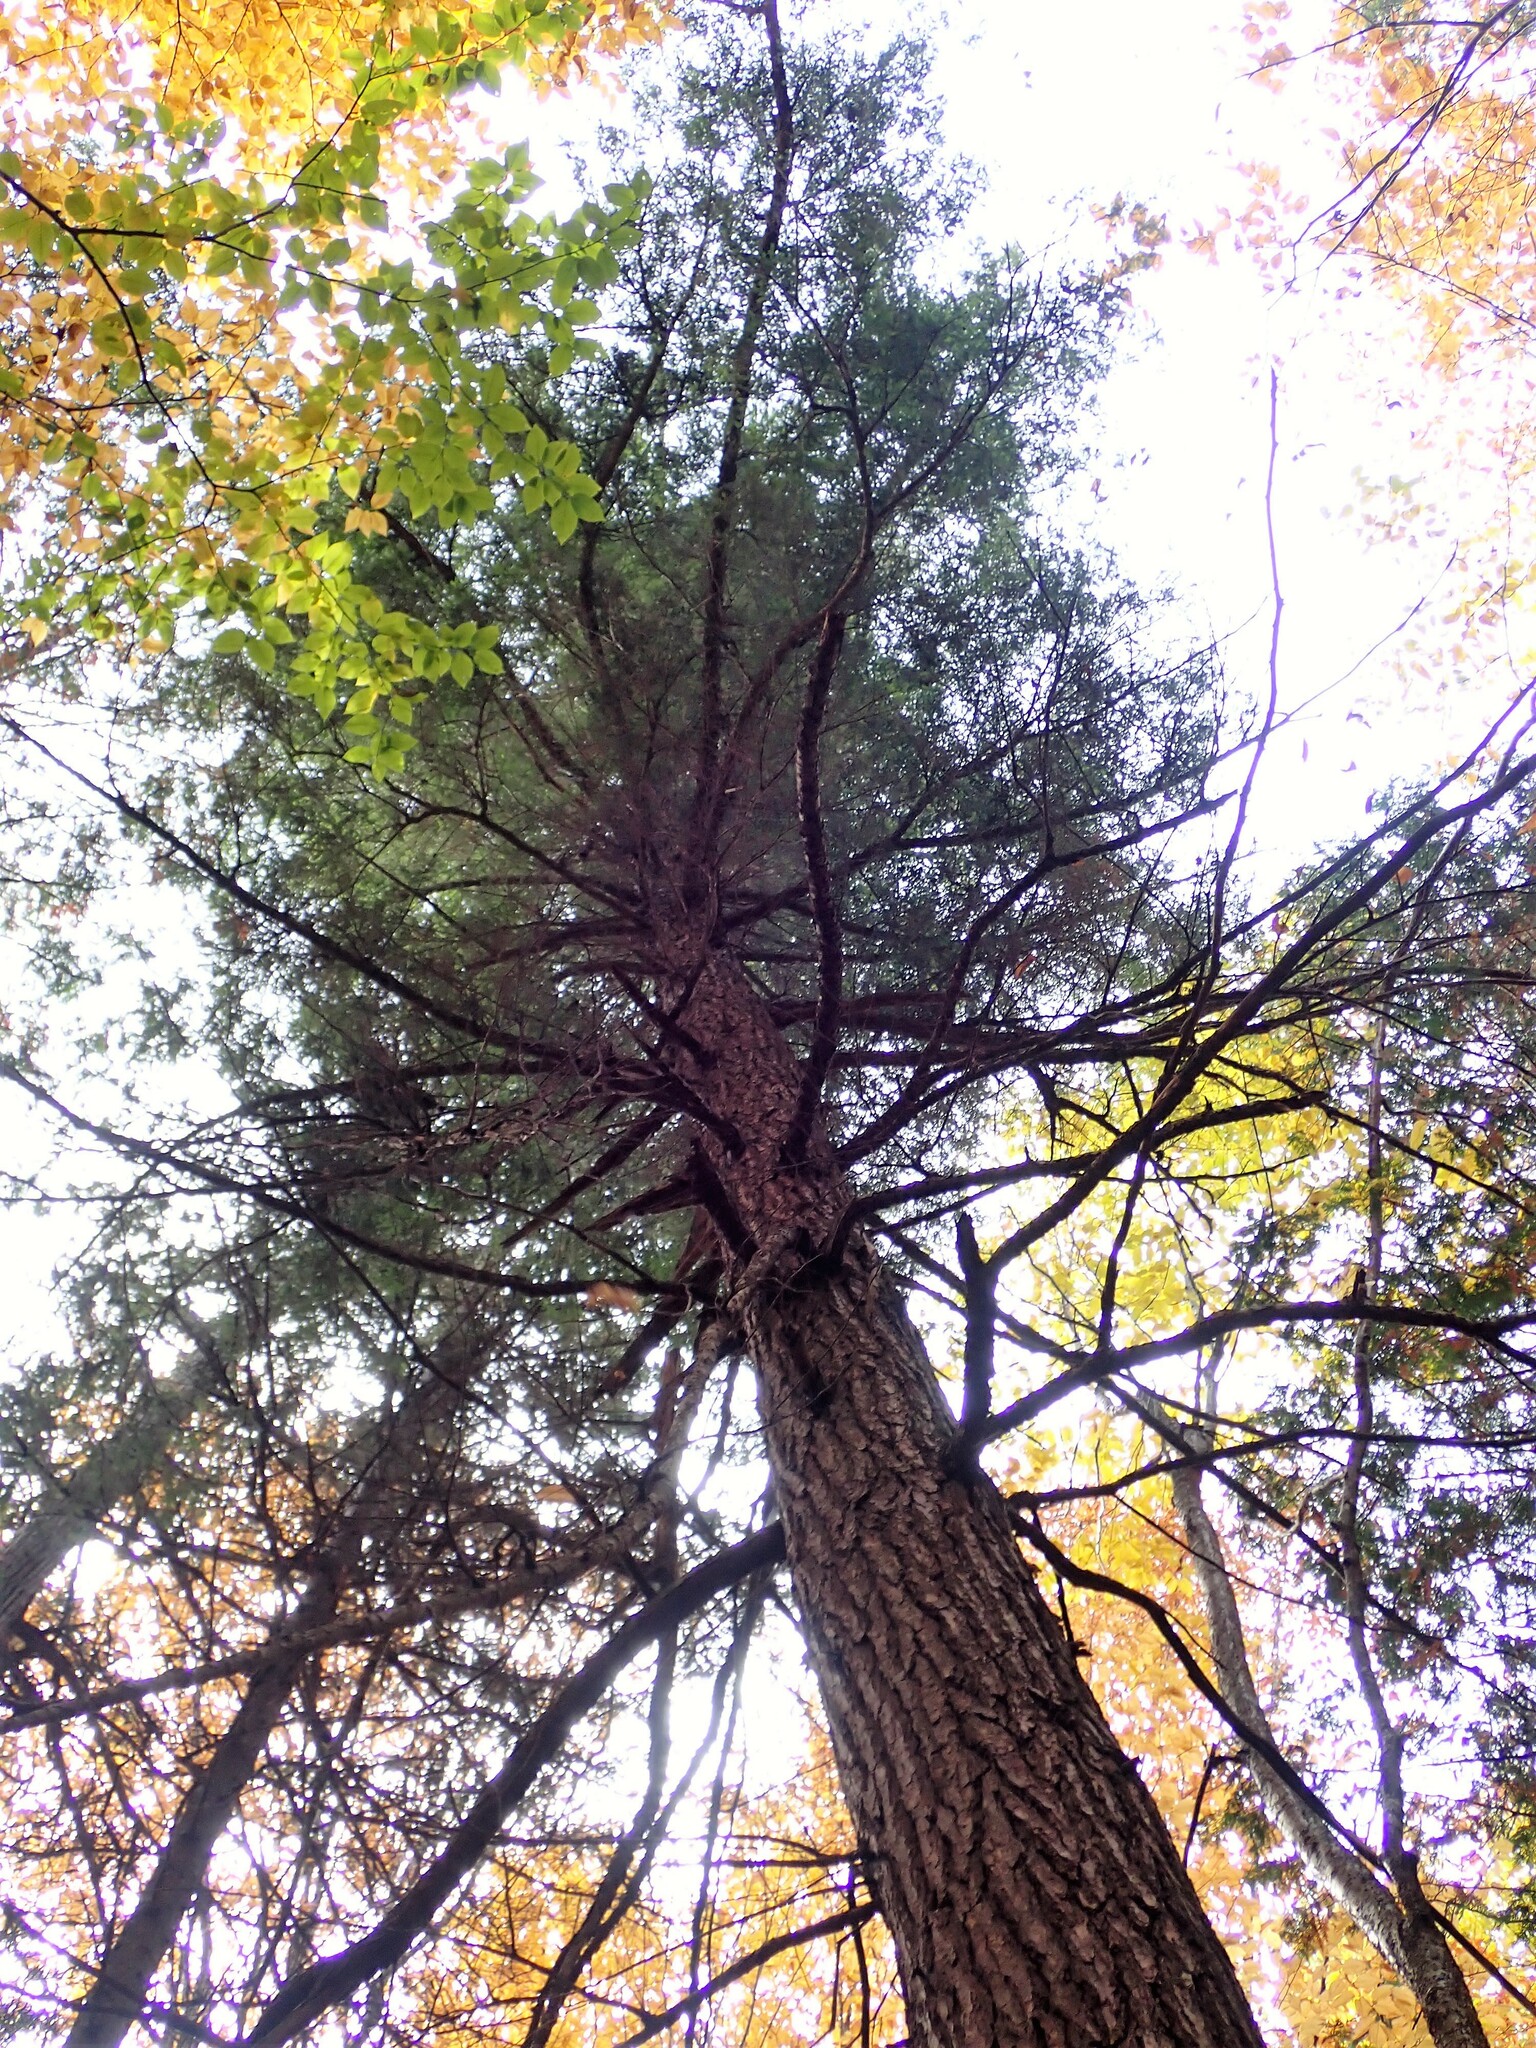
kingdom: Plantae
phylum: Tracheophyta
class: Pinopsida
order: Pinales
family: Pinaceae
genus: Tsuga
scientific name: Tsuga canadensis
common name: Eastern hemlock
